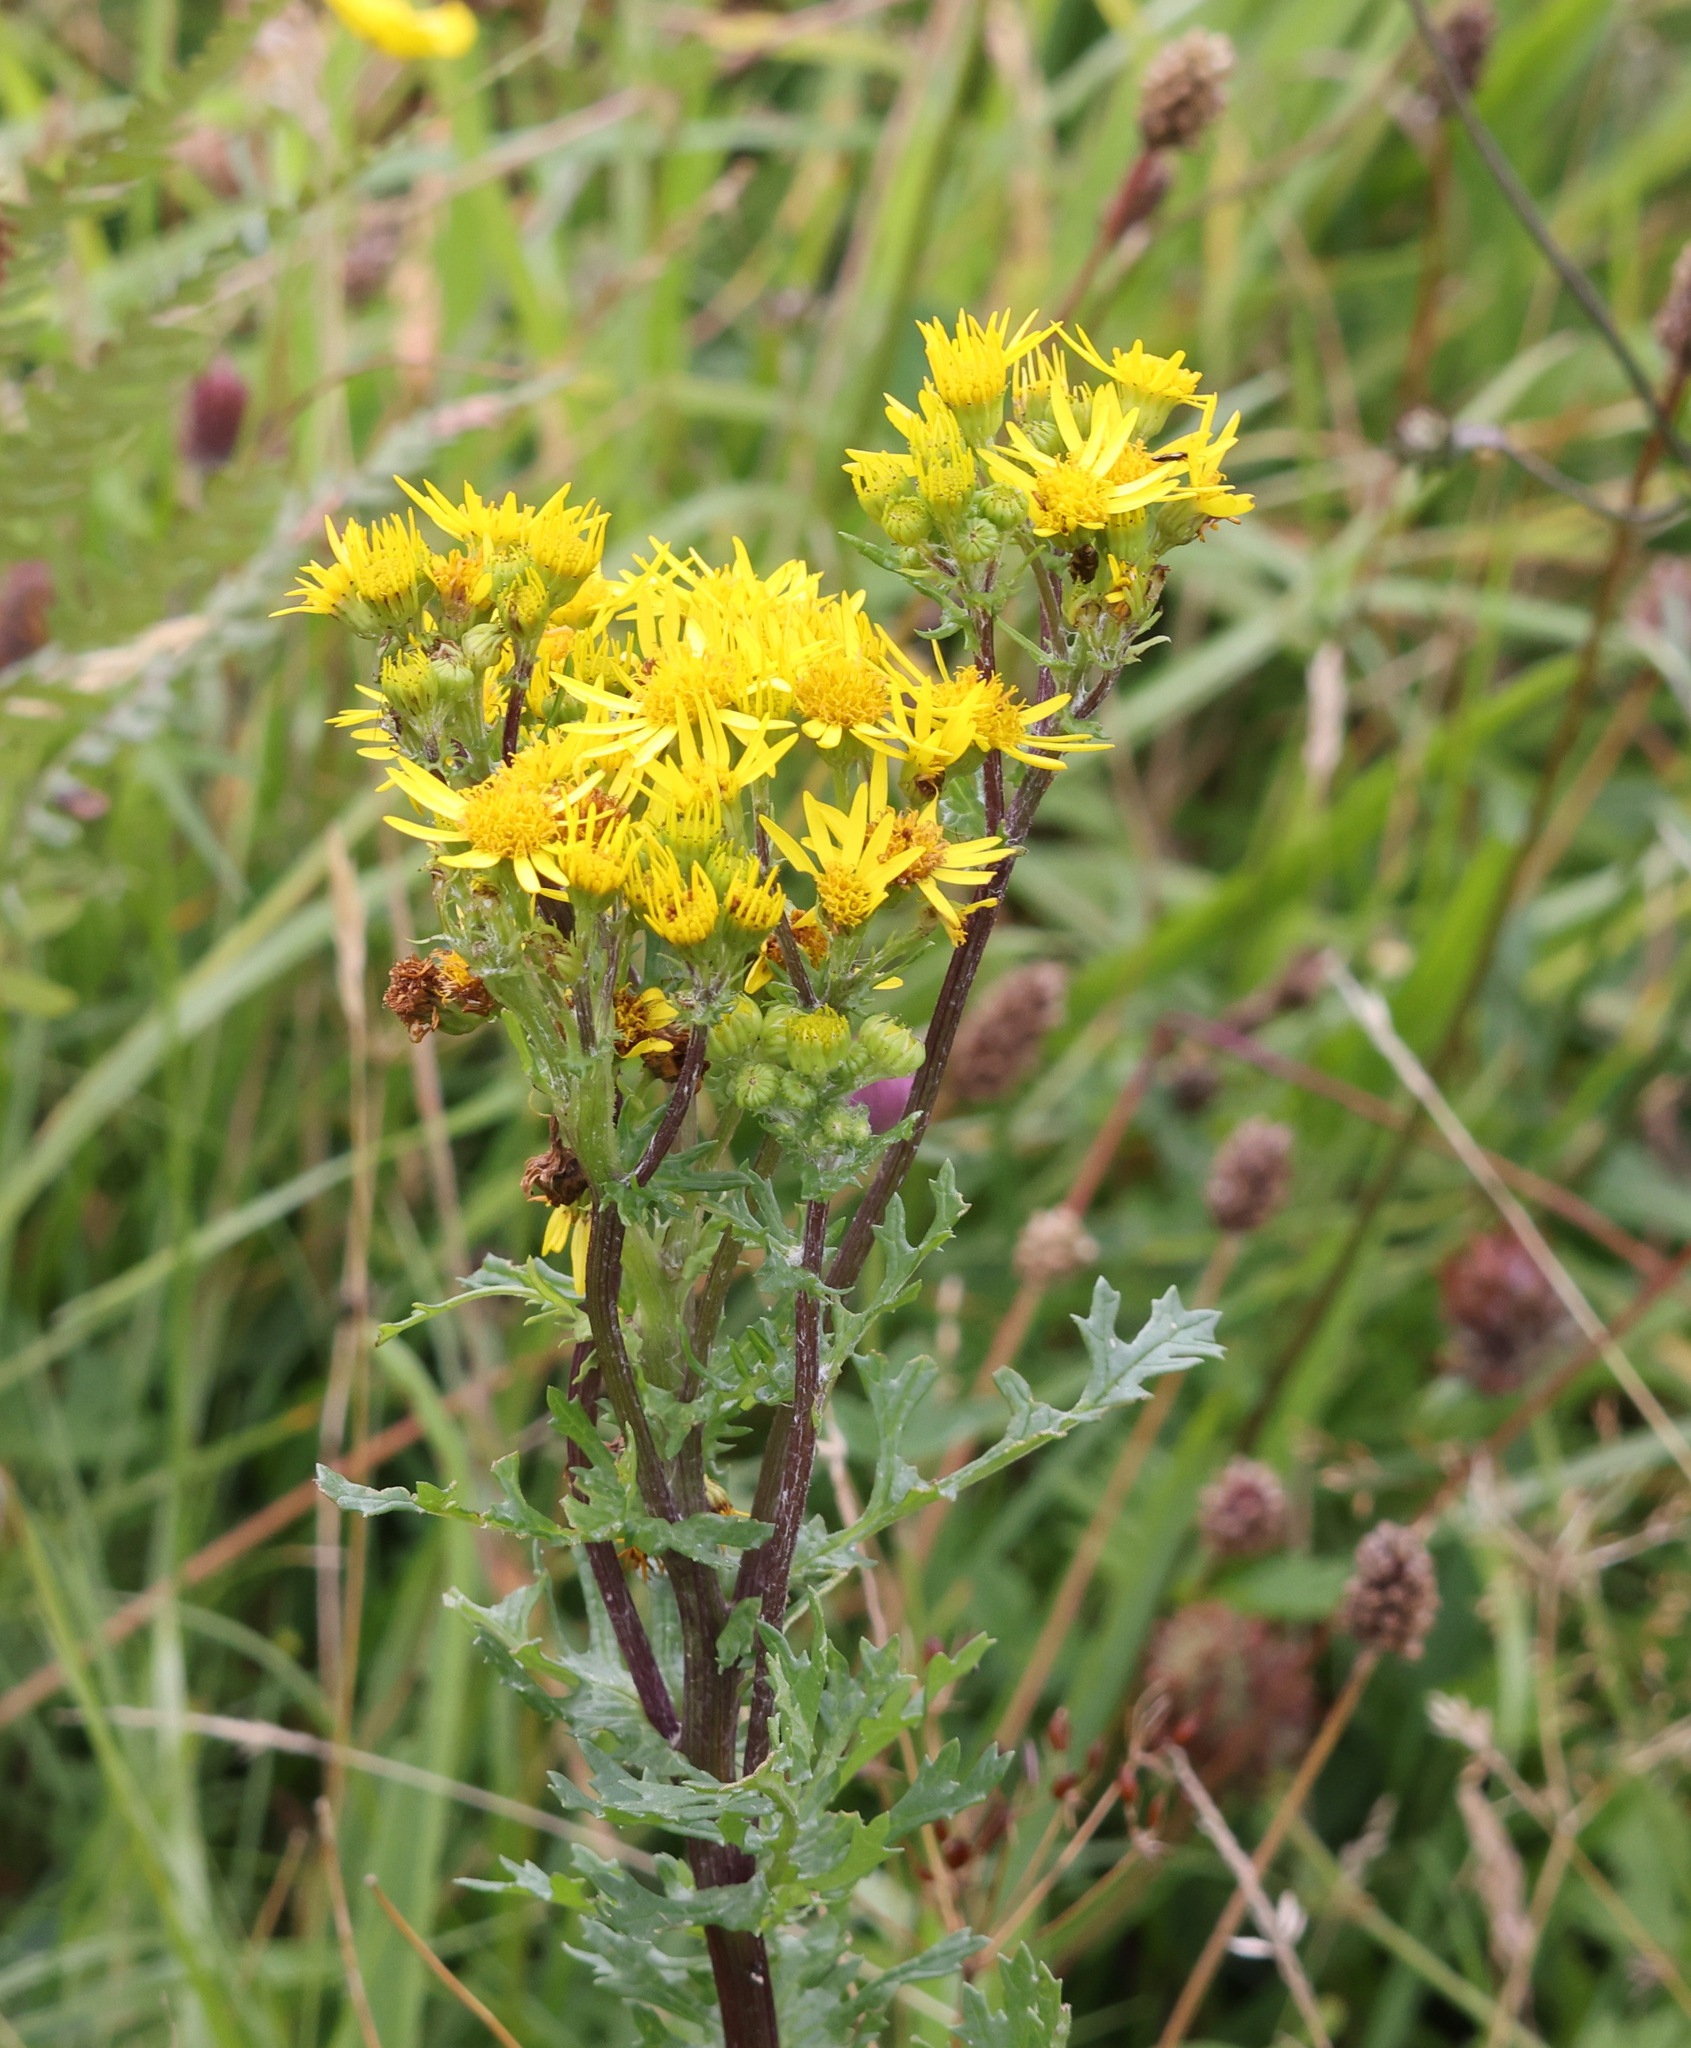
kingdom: Plantae
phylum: Tracheophyta
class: Magnoliopsida
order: Asterales
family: Asteraceae
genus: Jacobaea
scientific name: Jacobaea vulgaris
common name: Stinking willie
